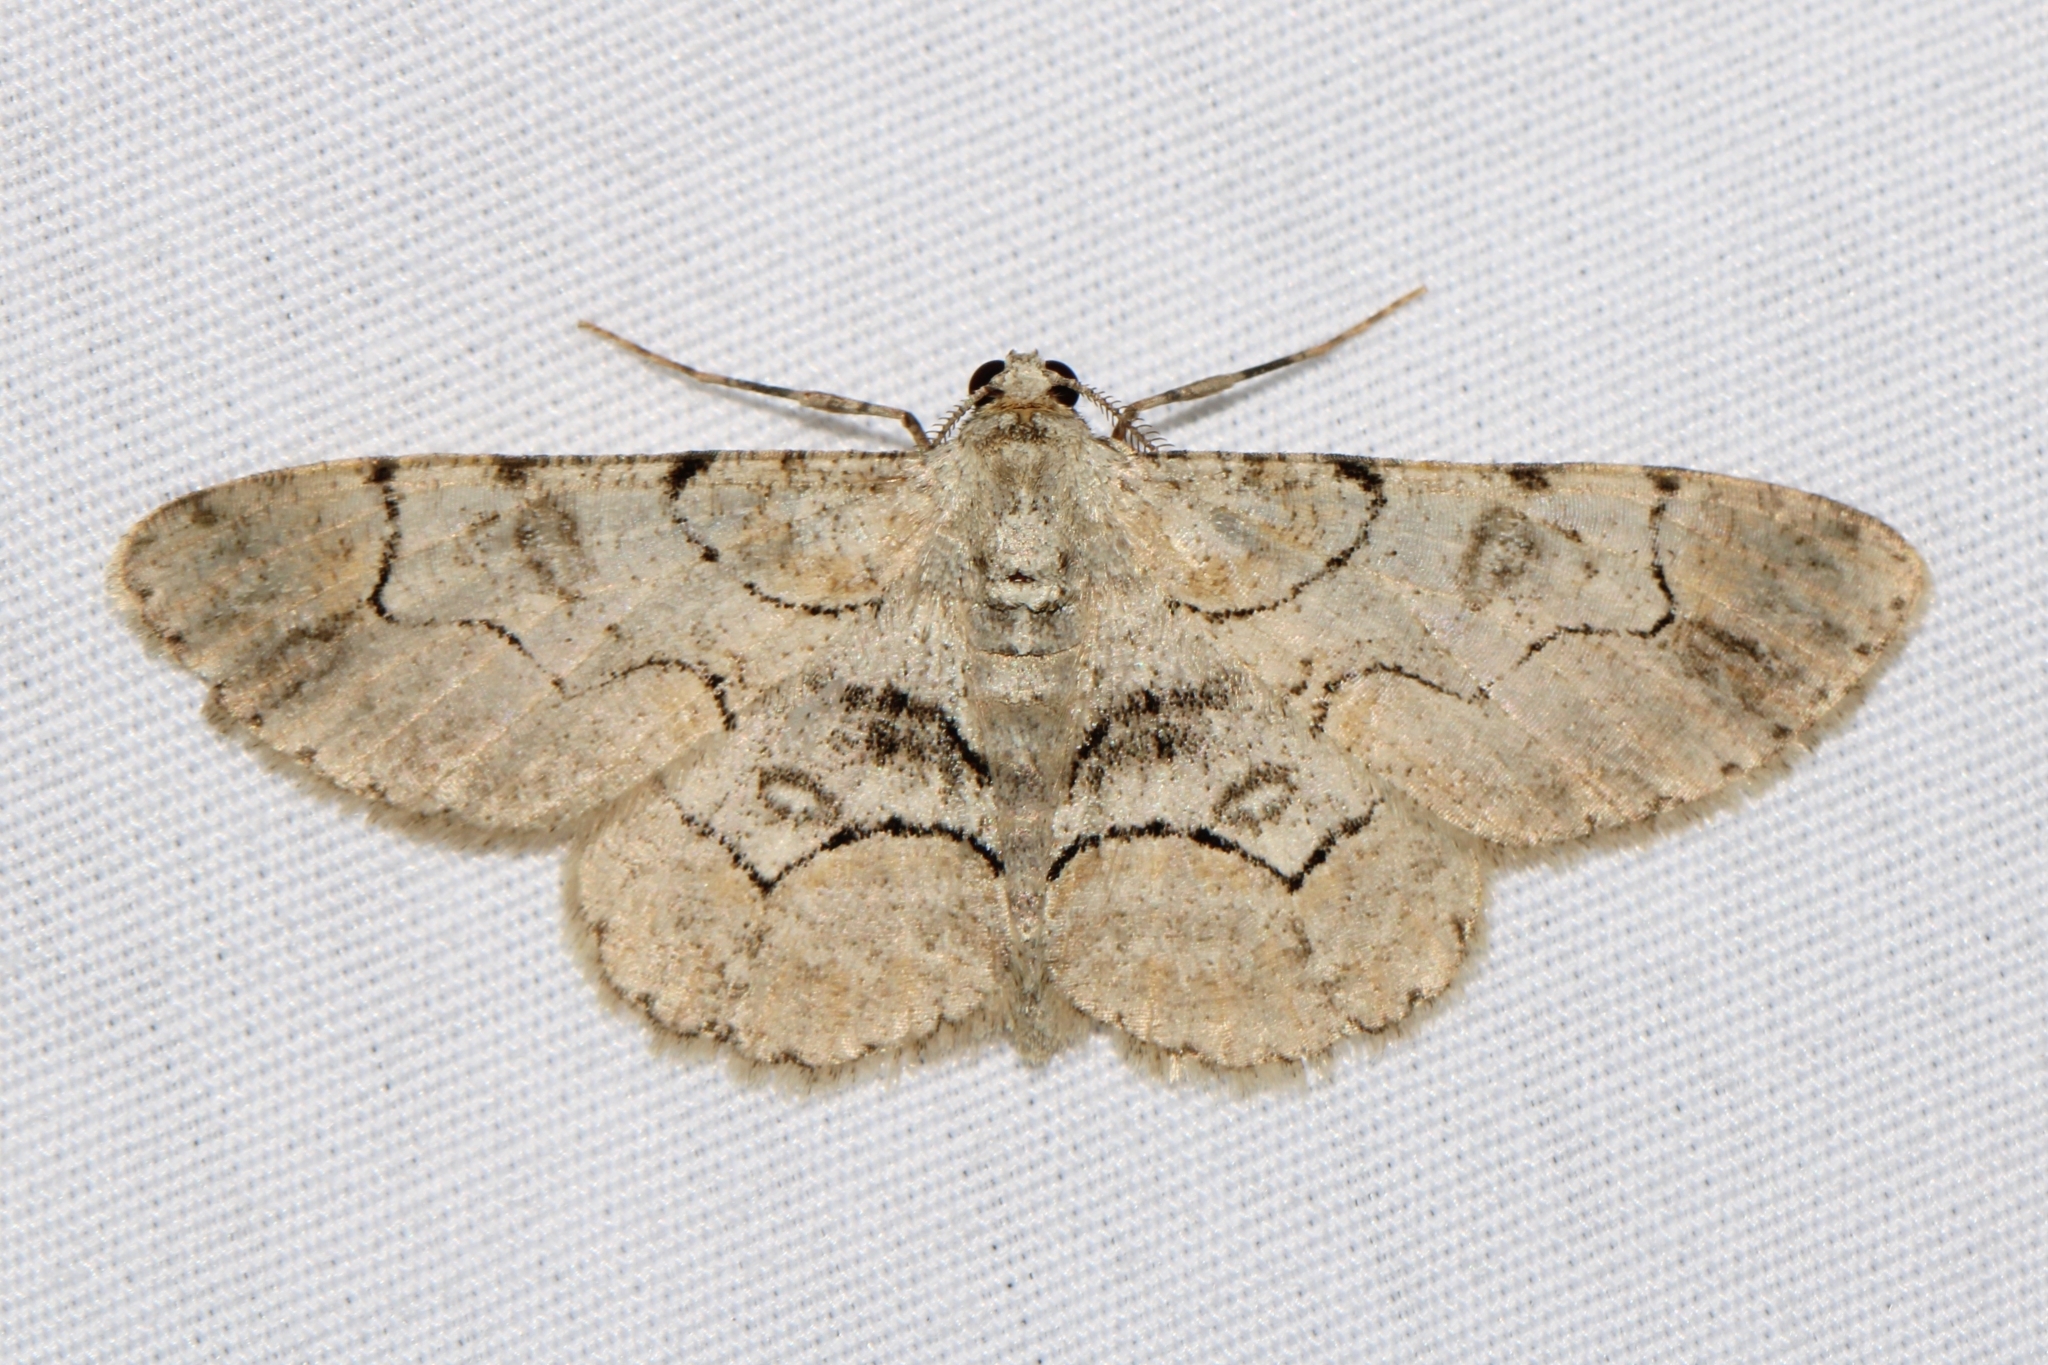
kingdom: Animalia
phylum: Arthropoda
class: Insecta
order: Lepidoptera
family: Geometridae
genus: Iridopsis
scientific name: Iridopsis larvaria
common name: Bent-line gray
